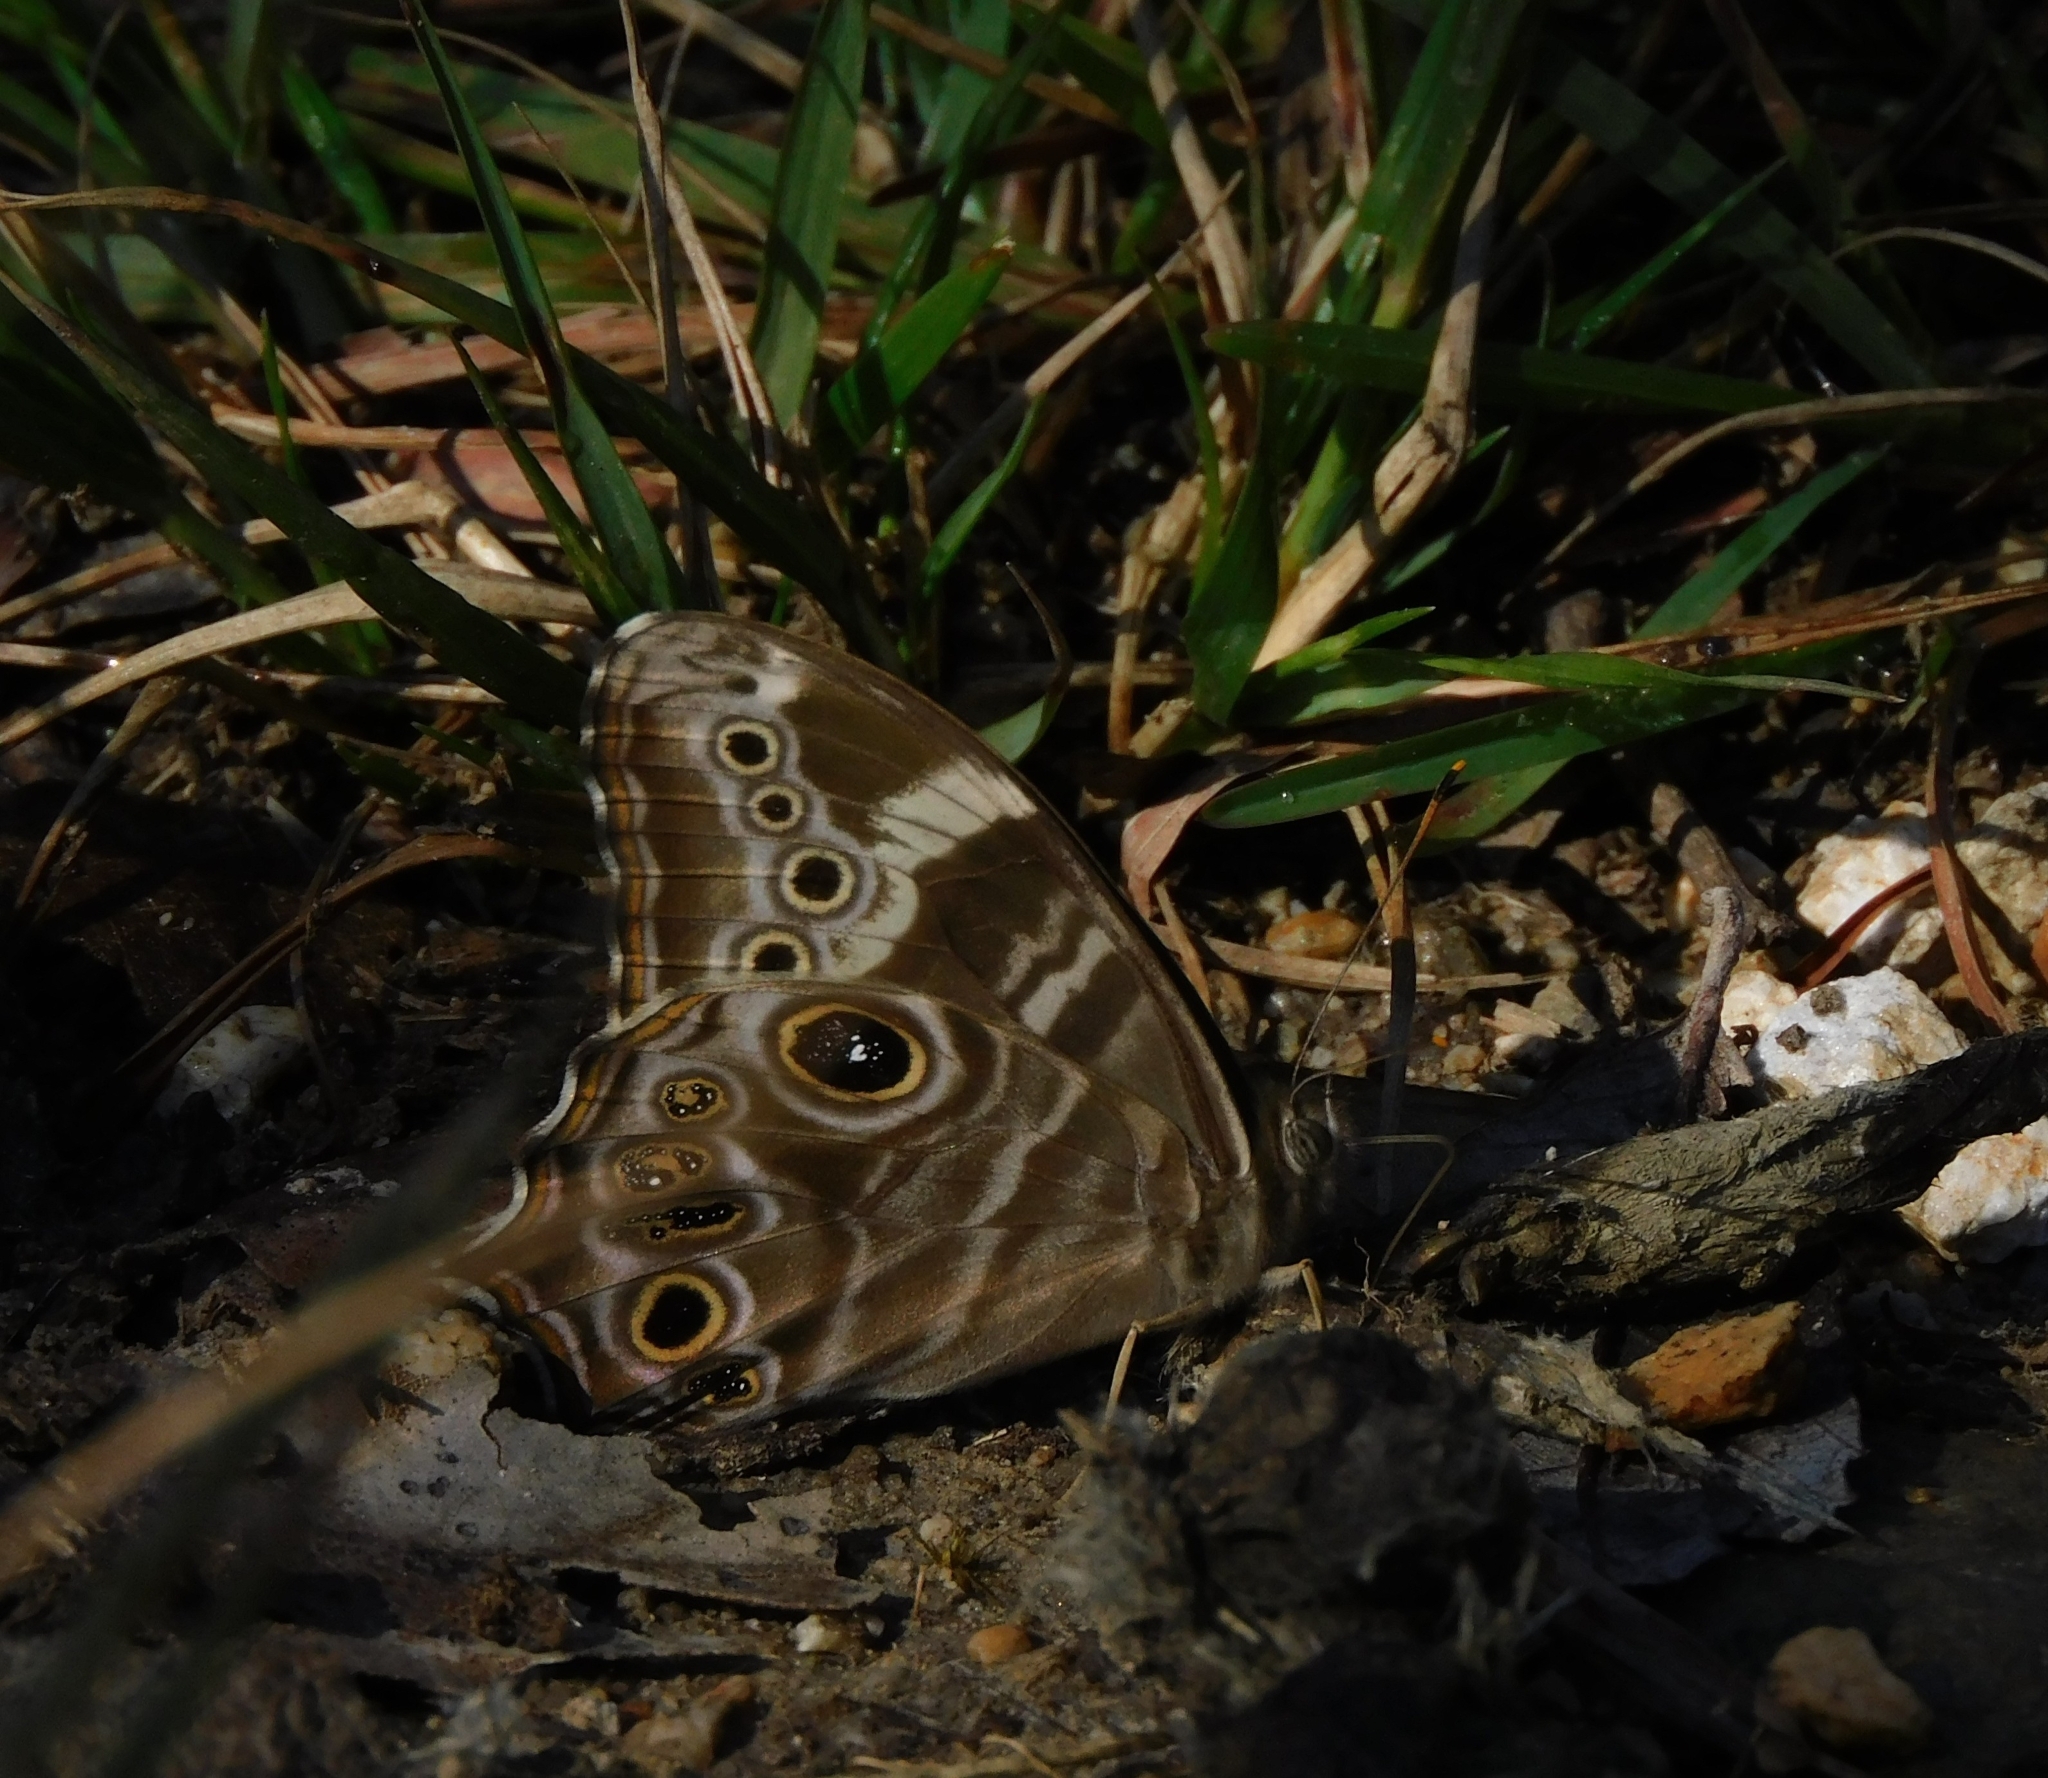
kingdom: Animalia
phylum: Arthropoda
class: Insecta
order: Lepidoptera
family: Nymphalidae
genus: Lethe
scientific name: Lethe rohria
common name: Common treebrown
